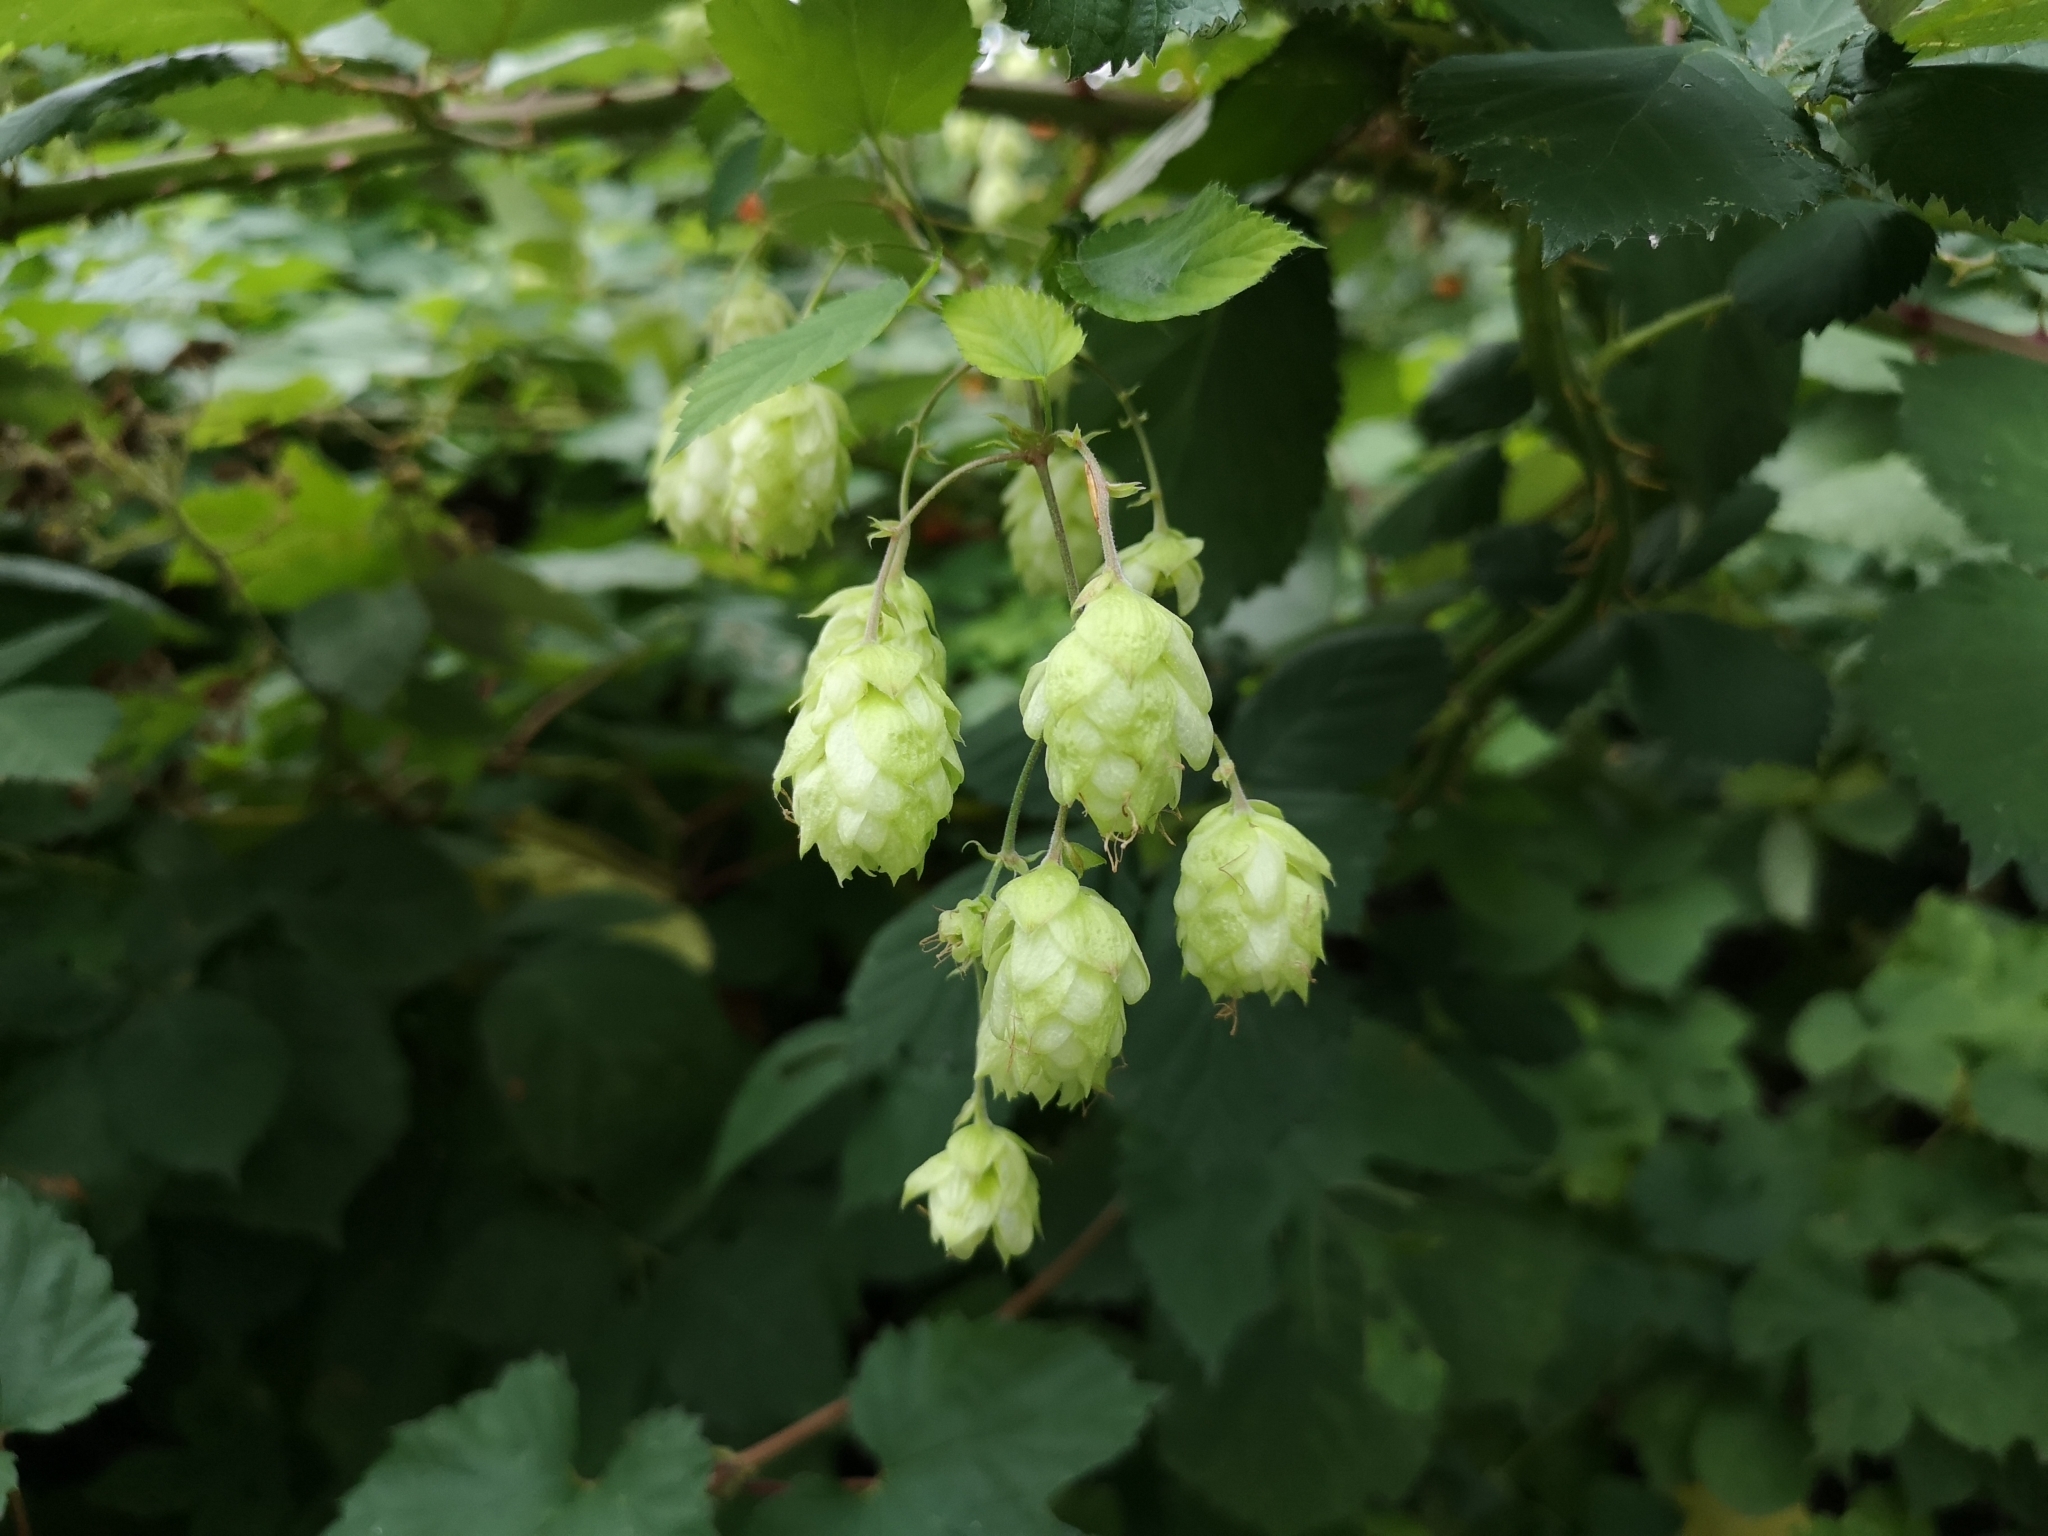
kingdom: Plantae
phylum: Tracheophyta
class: Magnoliopsida
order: Rosales
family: Cannabaceae
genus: Humulus
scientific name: Humulus lupulus
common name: Hop
